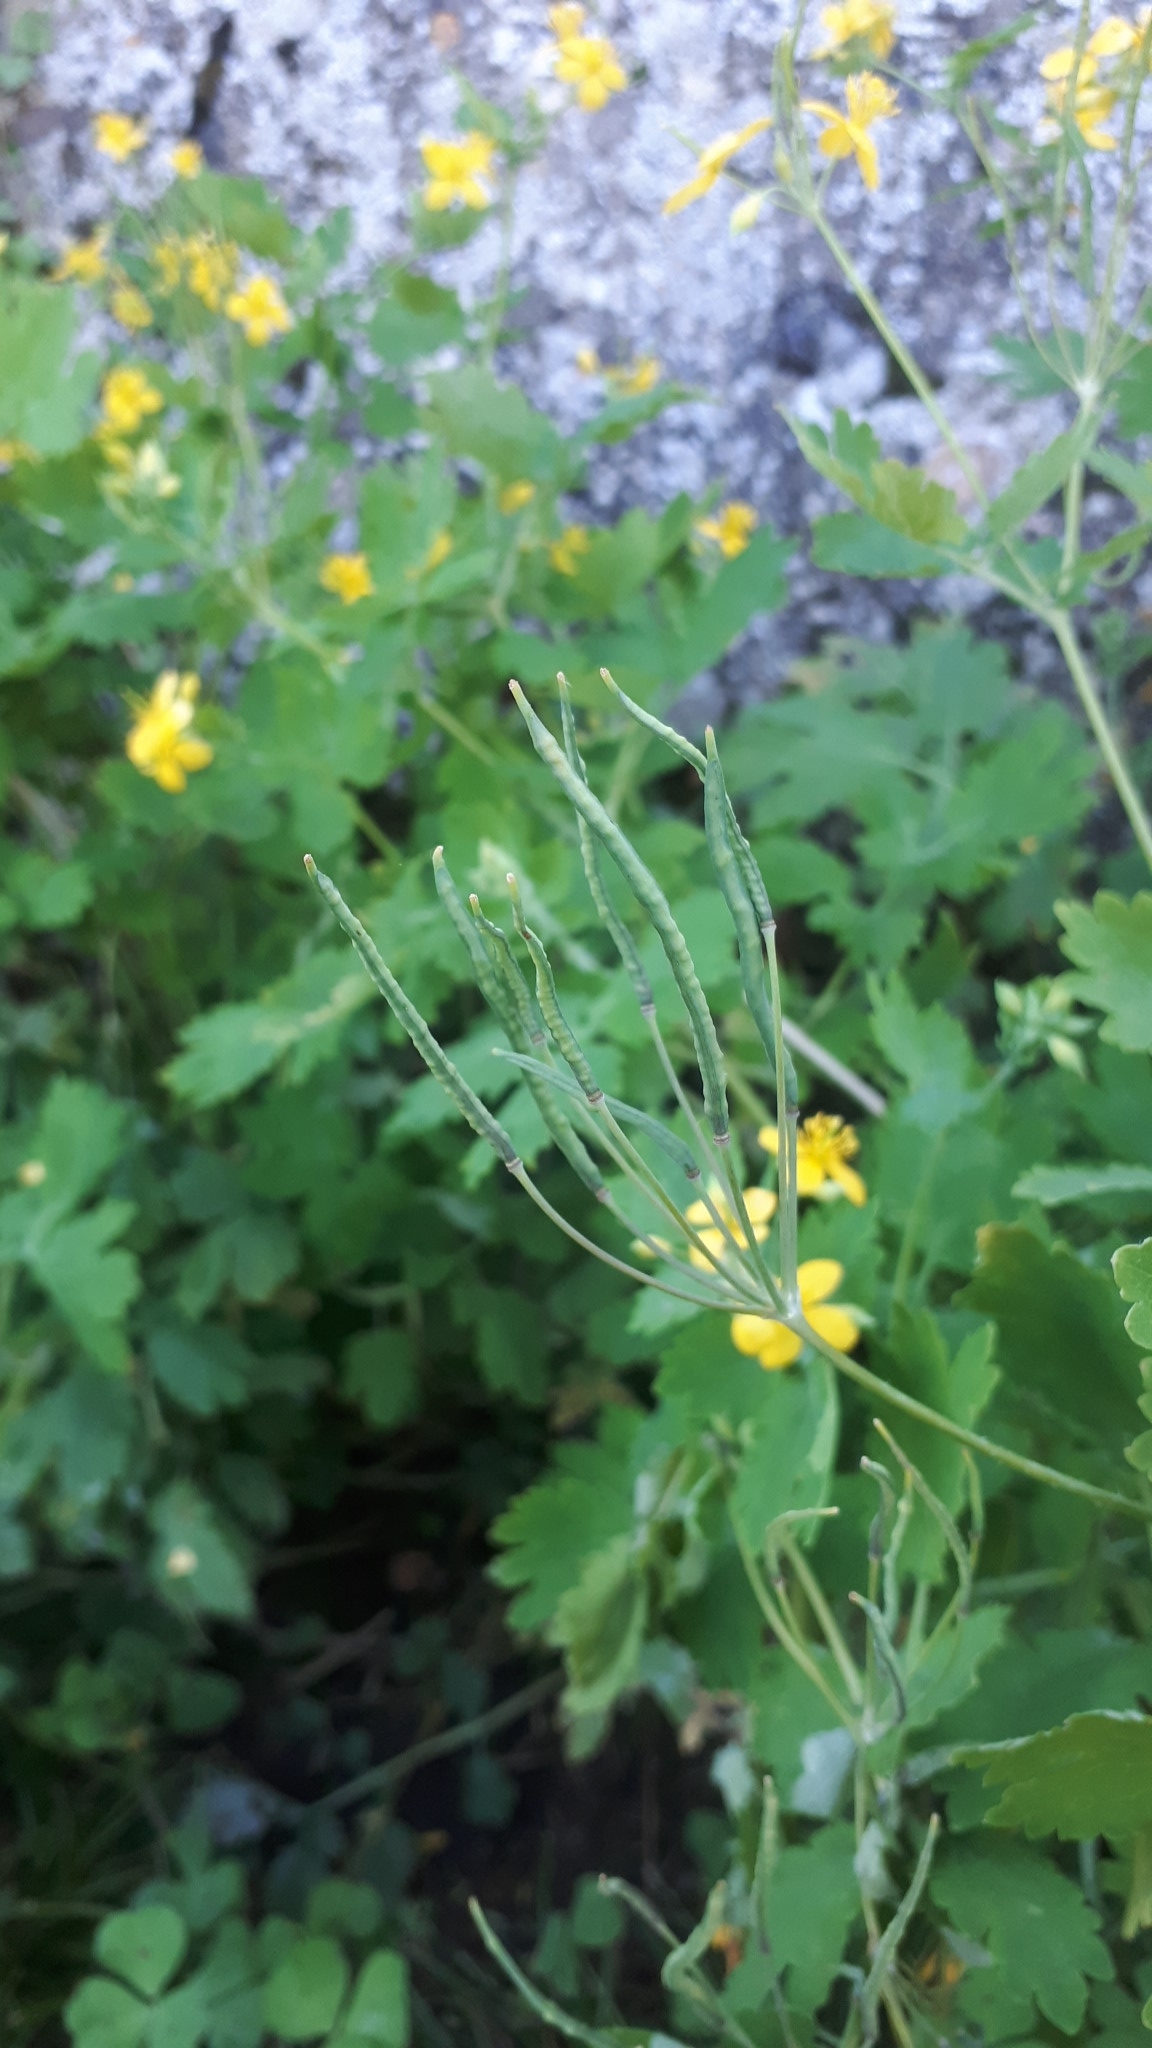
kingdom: Plantae
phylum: Tracheophyta
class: Magnoliopsida
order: Ranunculales
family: Papaveraceae
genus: Chelidonium
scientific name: Chelidonium majus
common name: Greater celandine
